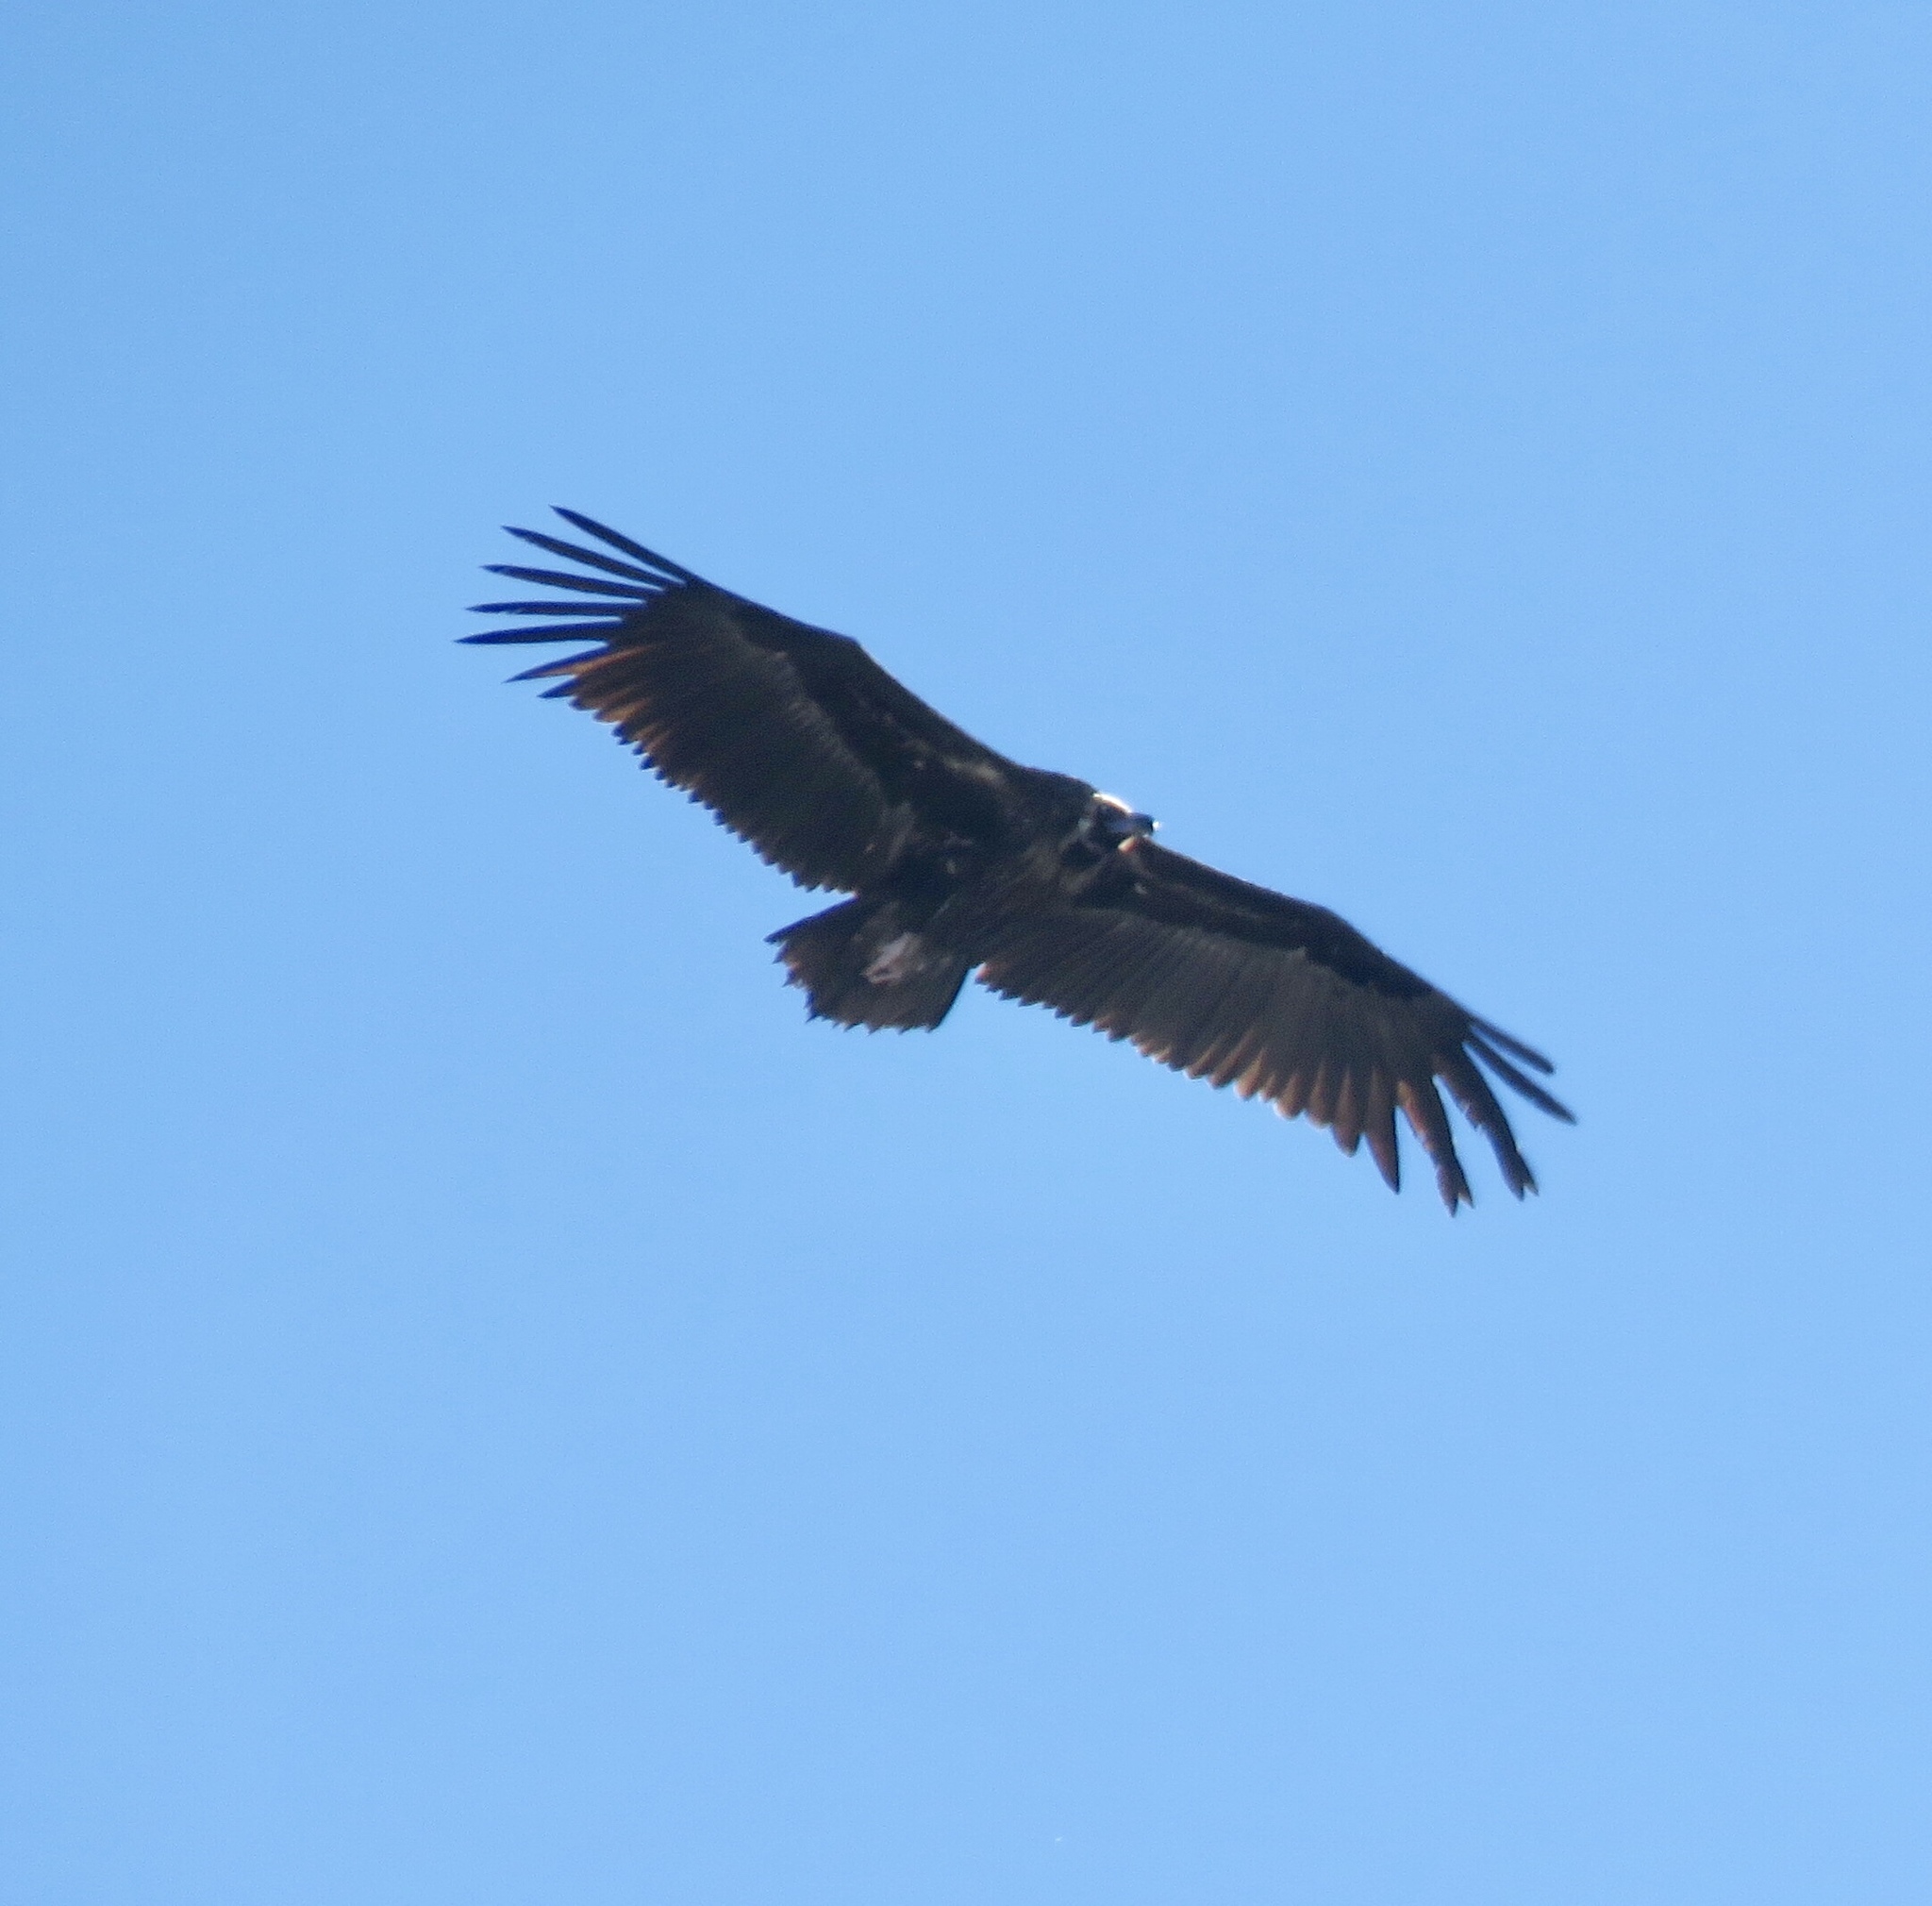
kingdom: Animalia
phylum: Chordata
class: Aves
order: Accipitriformes
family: Accipitridae
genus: Aegypius
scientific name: Aegypius monachus
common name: Cinereous vulture
